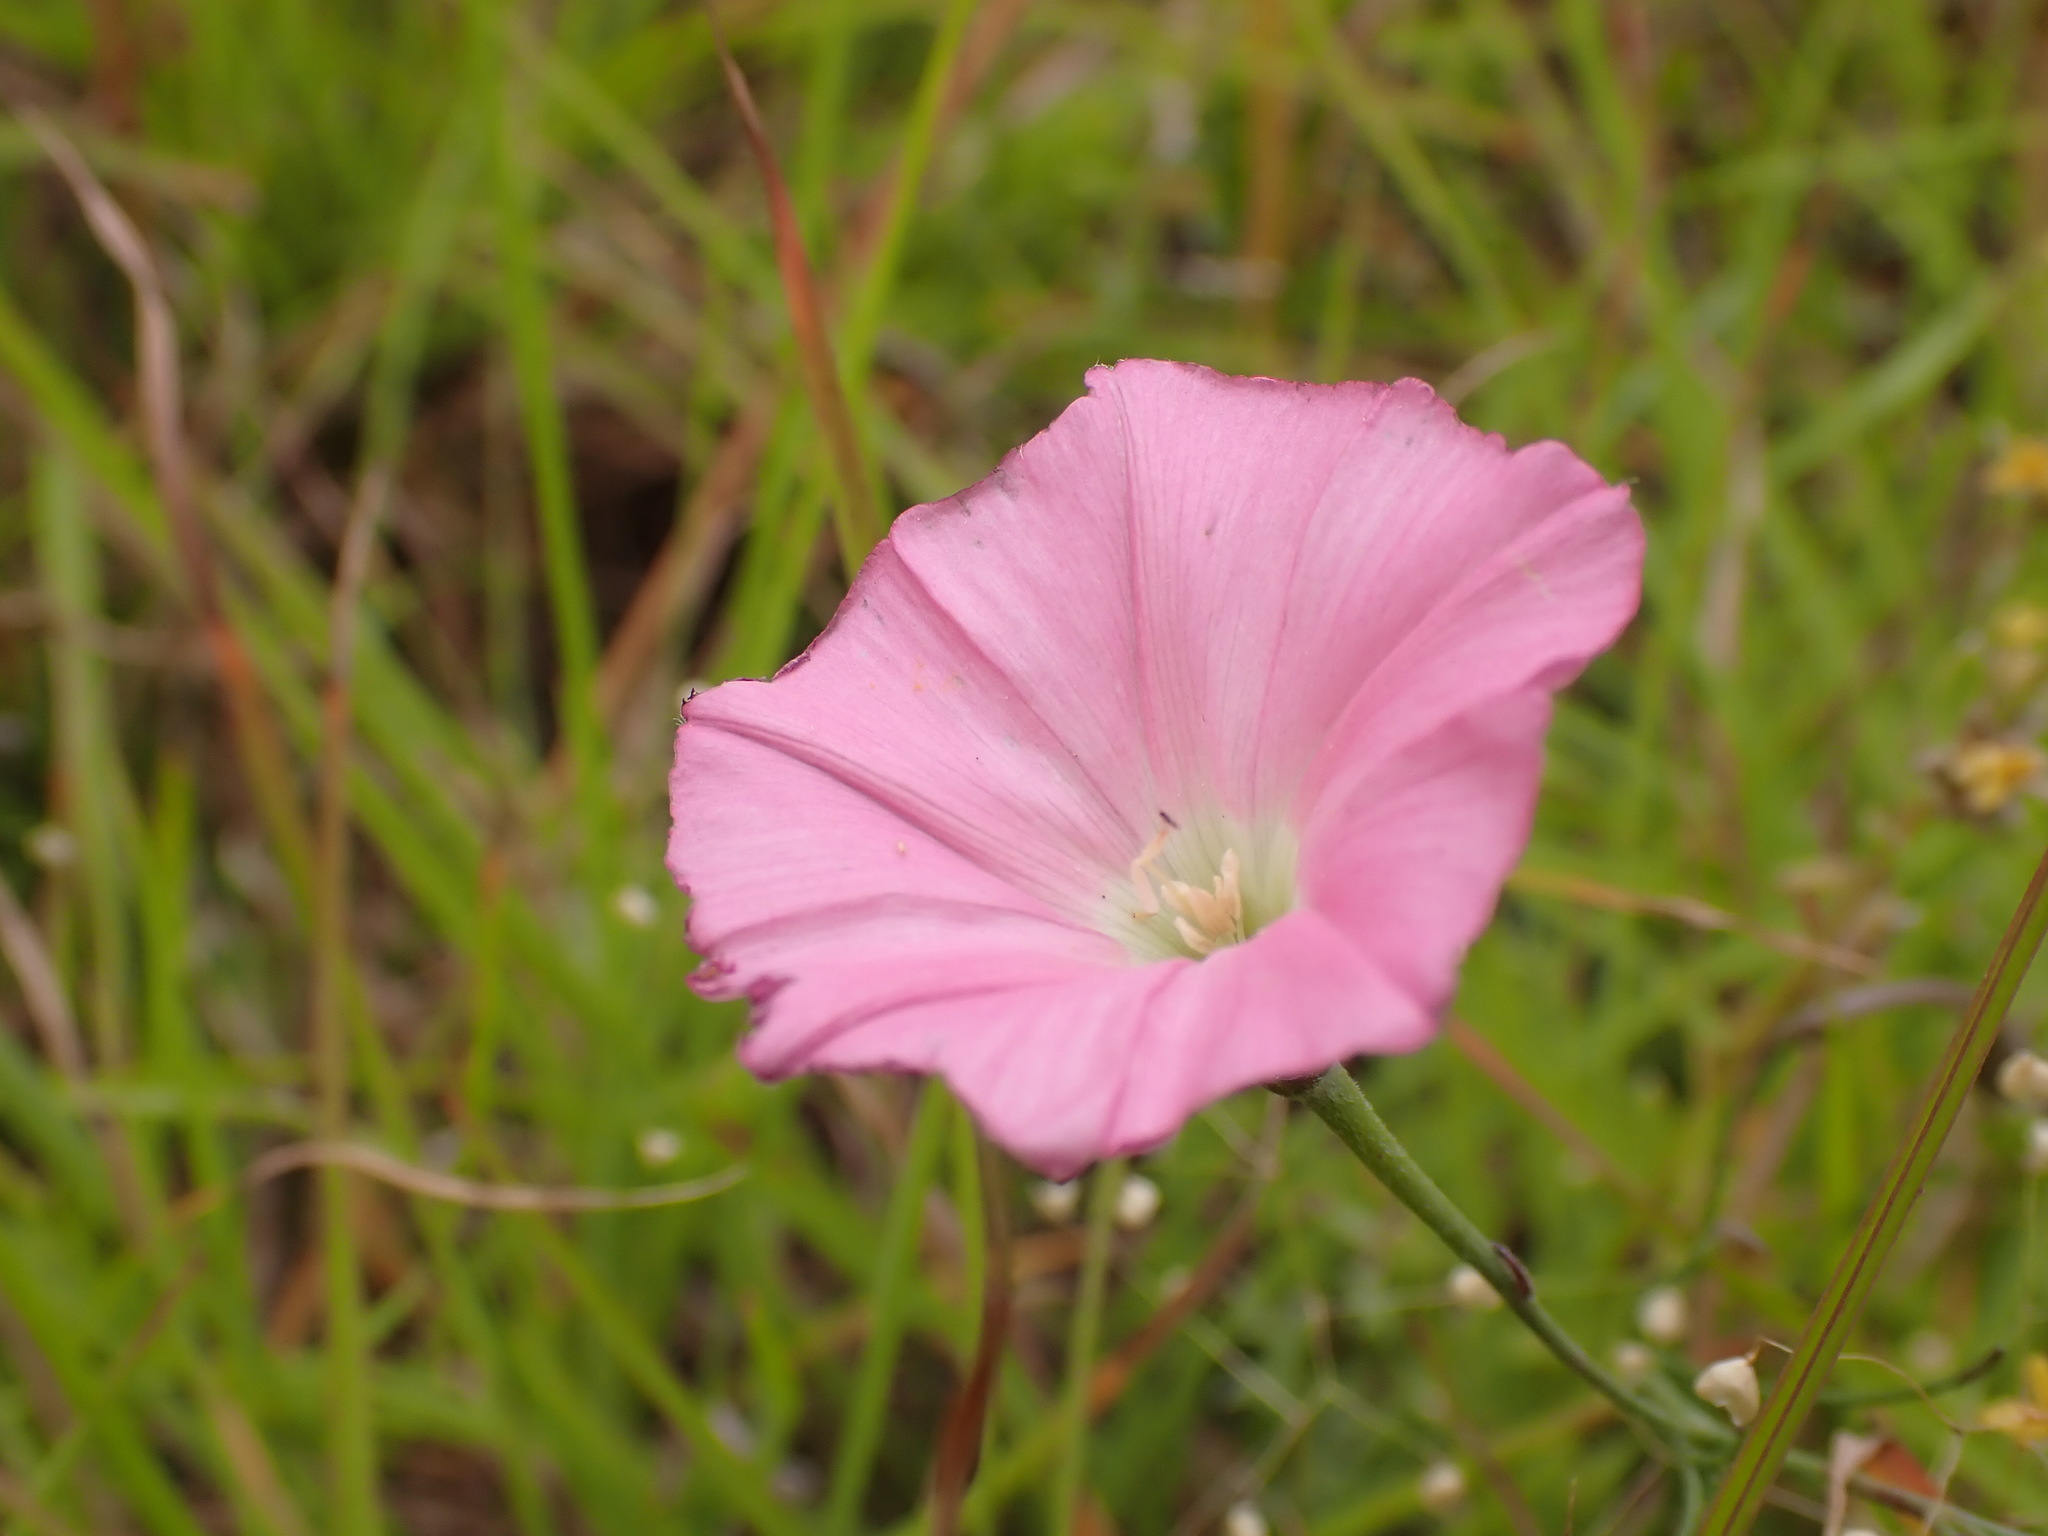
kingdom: Plantae
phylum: Tracheophyta
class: Magnoliopsida
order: Solanales
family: Convolvulaceae
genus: Convolvulus
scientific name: Convolvulus angustissimus
